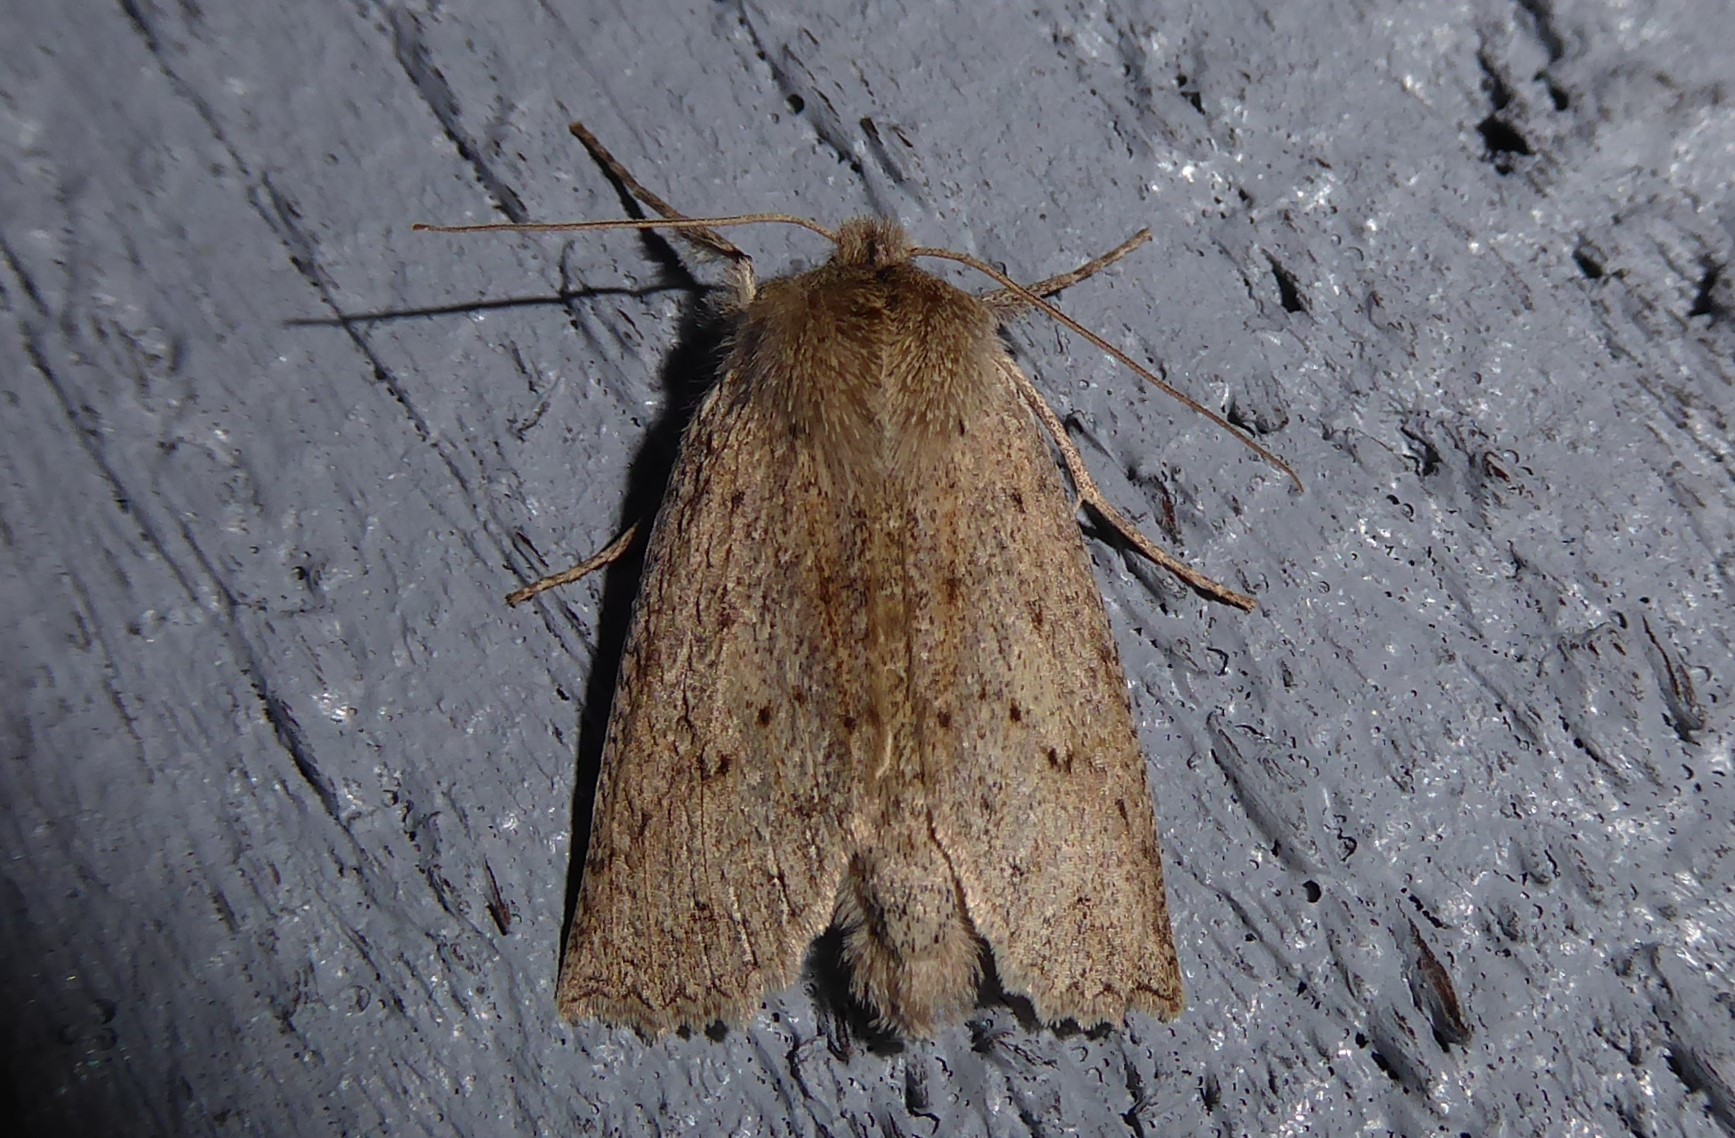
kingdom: Animalia
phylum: Arthropoda
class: Insecta
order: Lepidoptera
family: Geometridae
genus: Declana
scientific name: Declana leptomera
